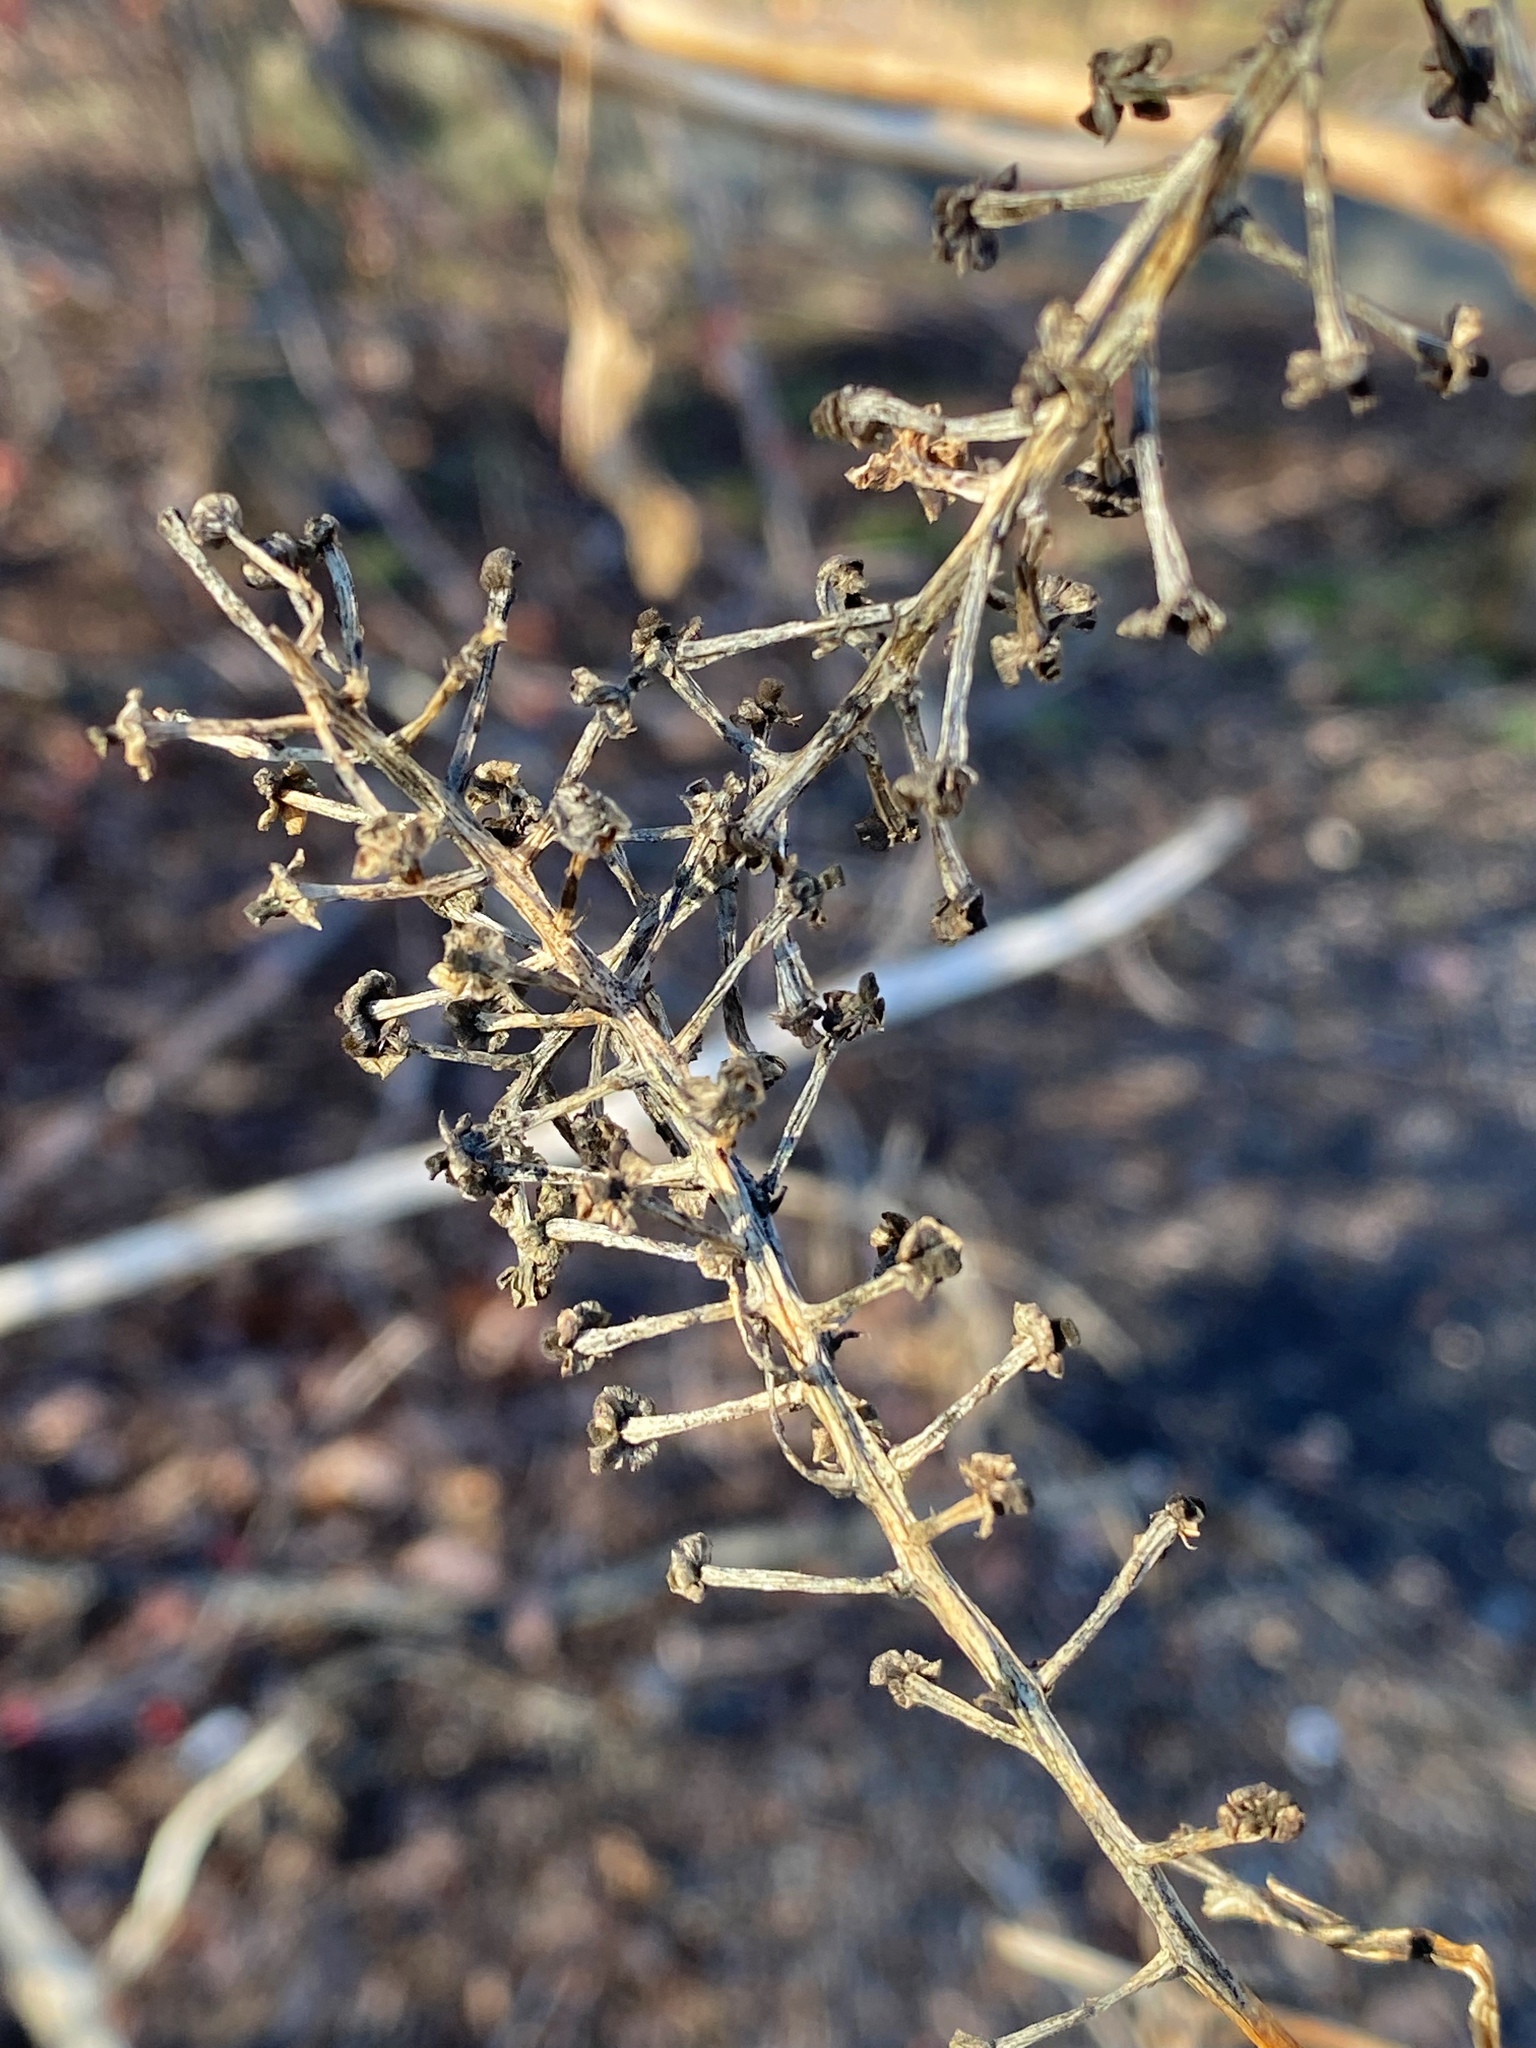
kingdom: Plantae
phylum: Tracheophyta
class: Magnoliopsida
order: Caryophyllales
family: Phytolaccaceae
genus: Phytolacca
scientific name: Phytolacca americana
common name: American pokeweed
